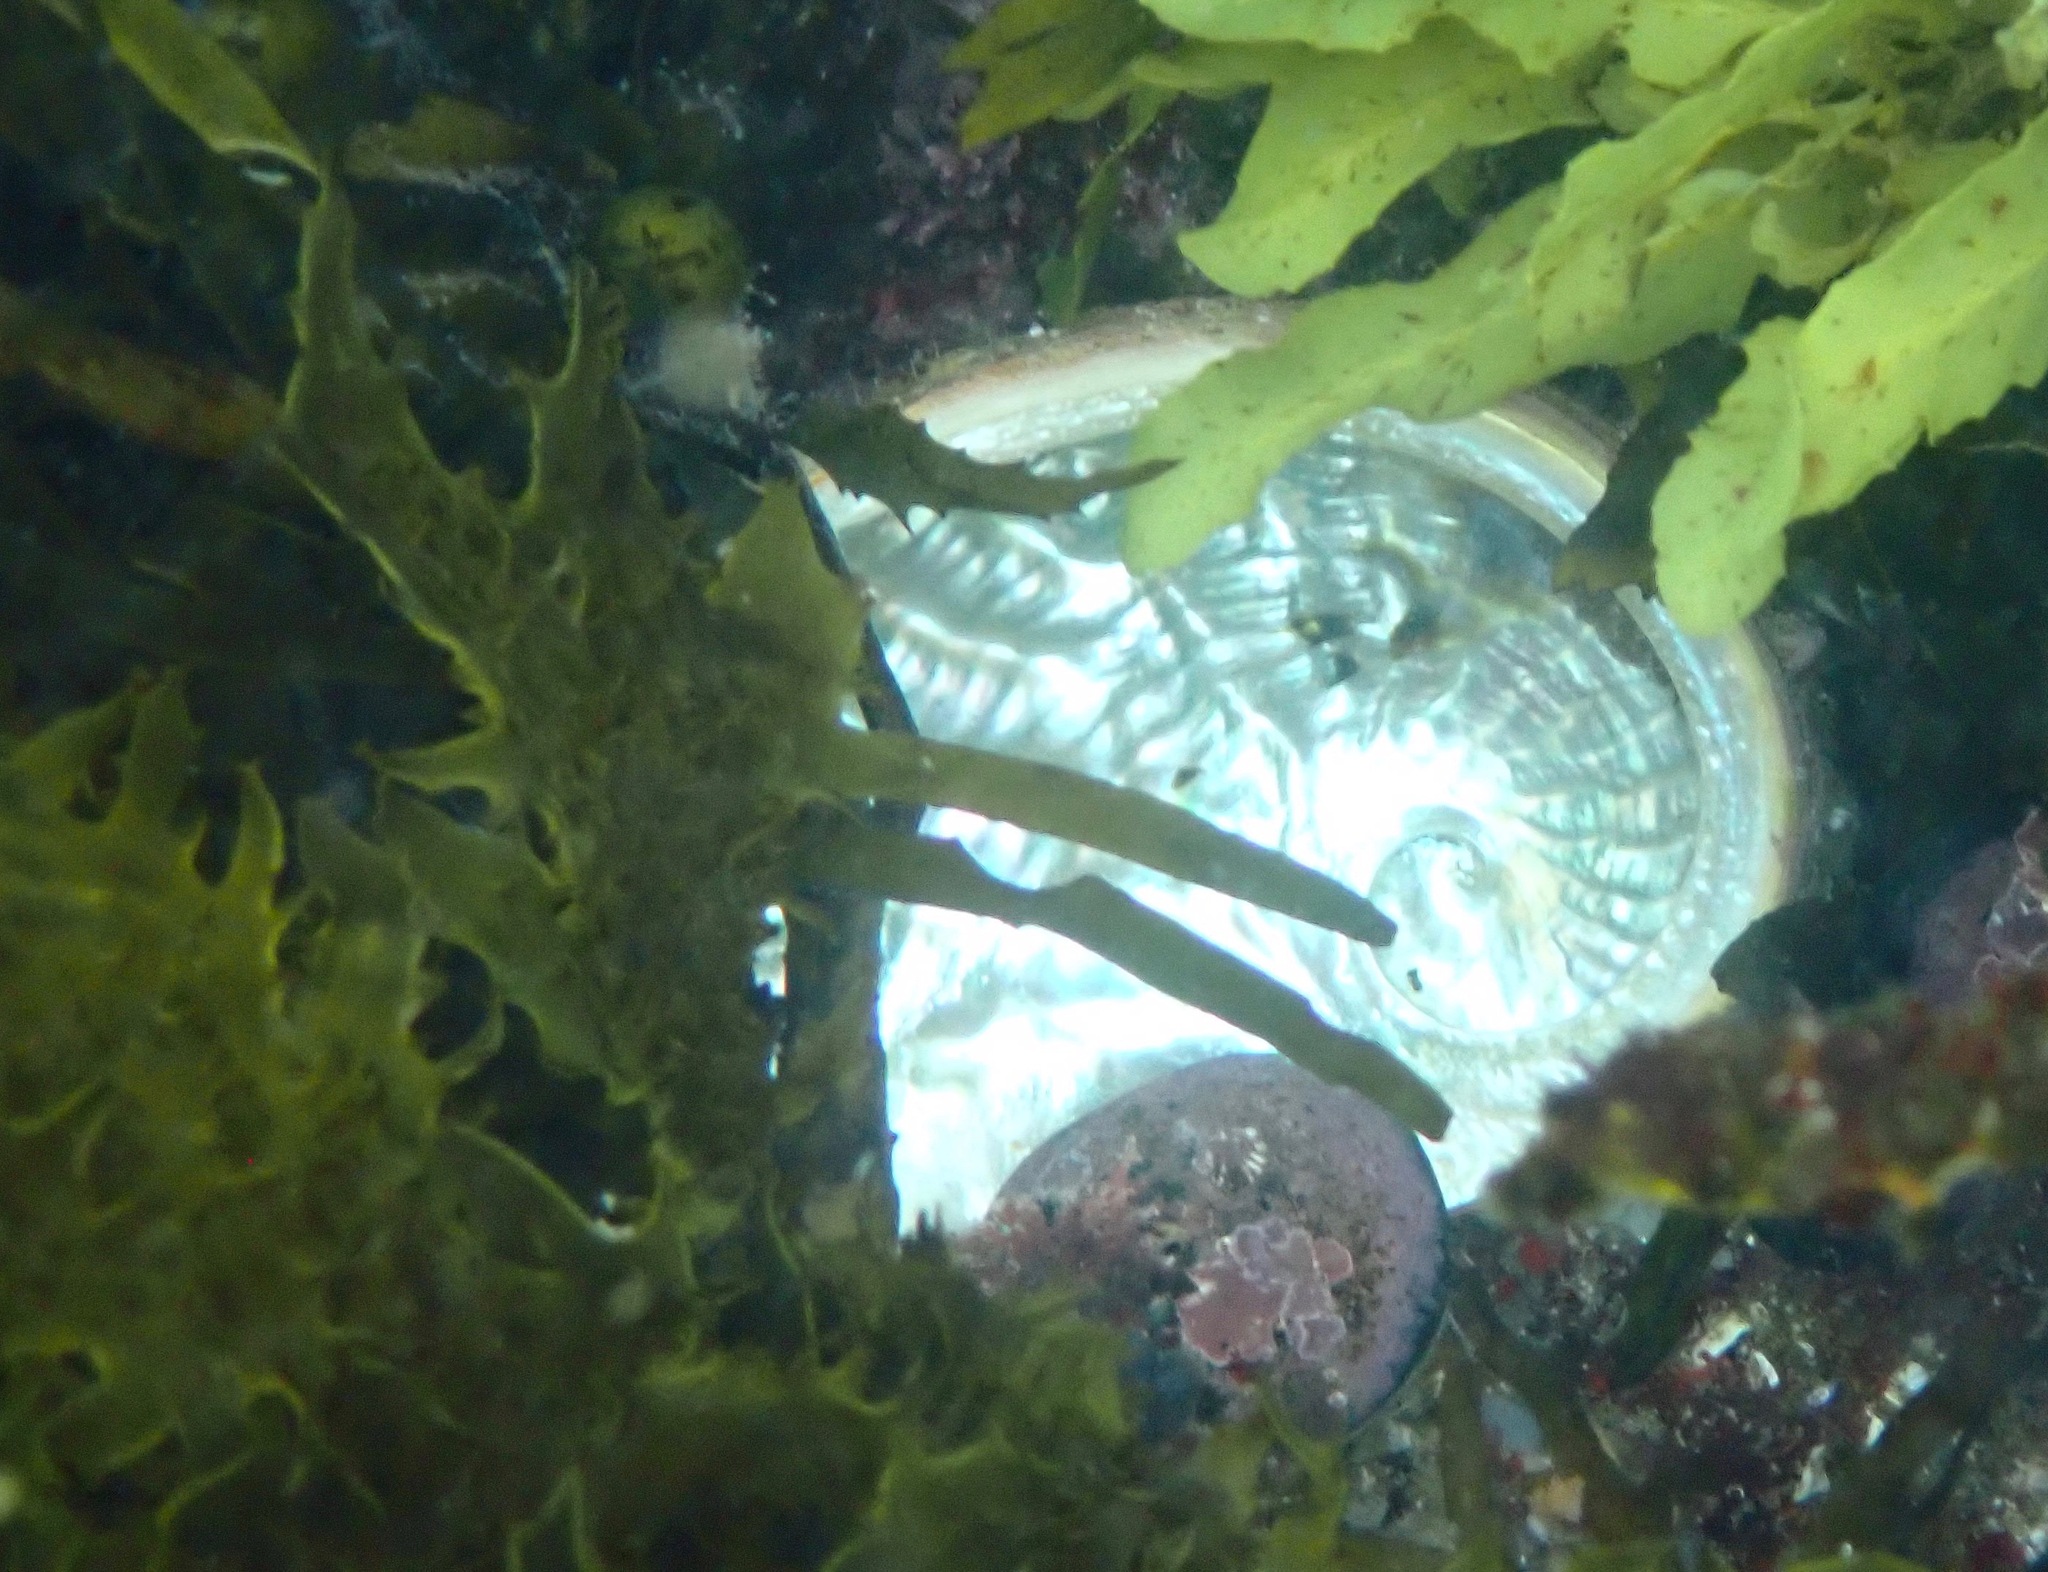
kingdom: Animalia
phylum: Mollusca
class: Gastropoda
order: Lepetellida
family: Haliotidae
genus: Haliotis
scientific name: Haliotis rubra
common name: Blacklip abalone
